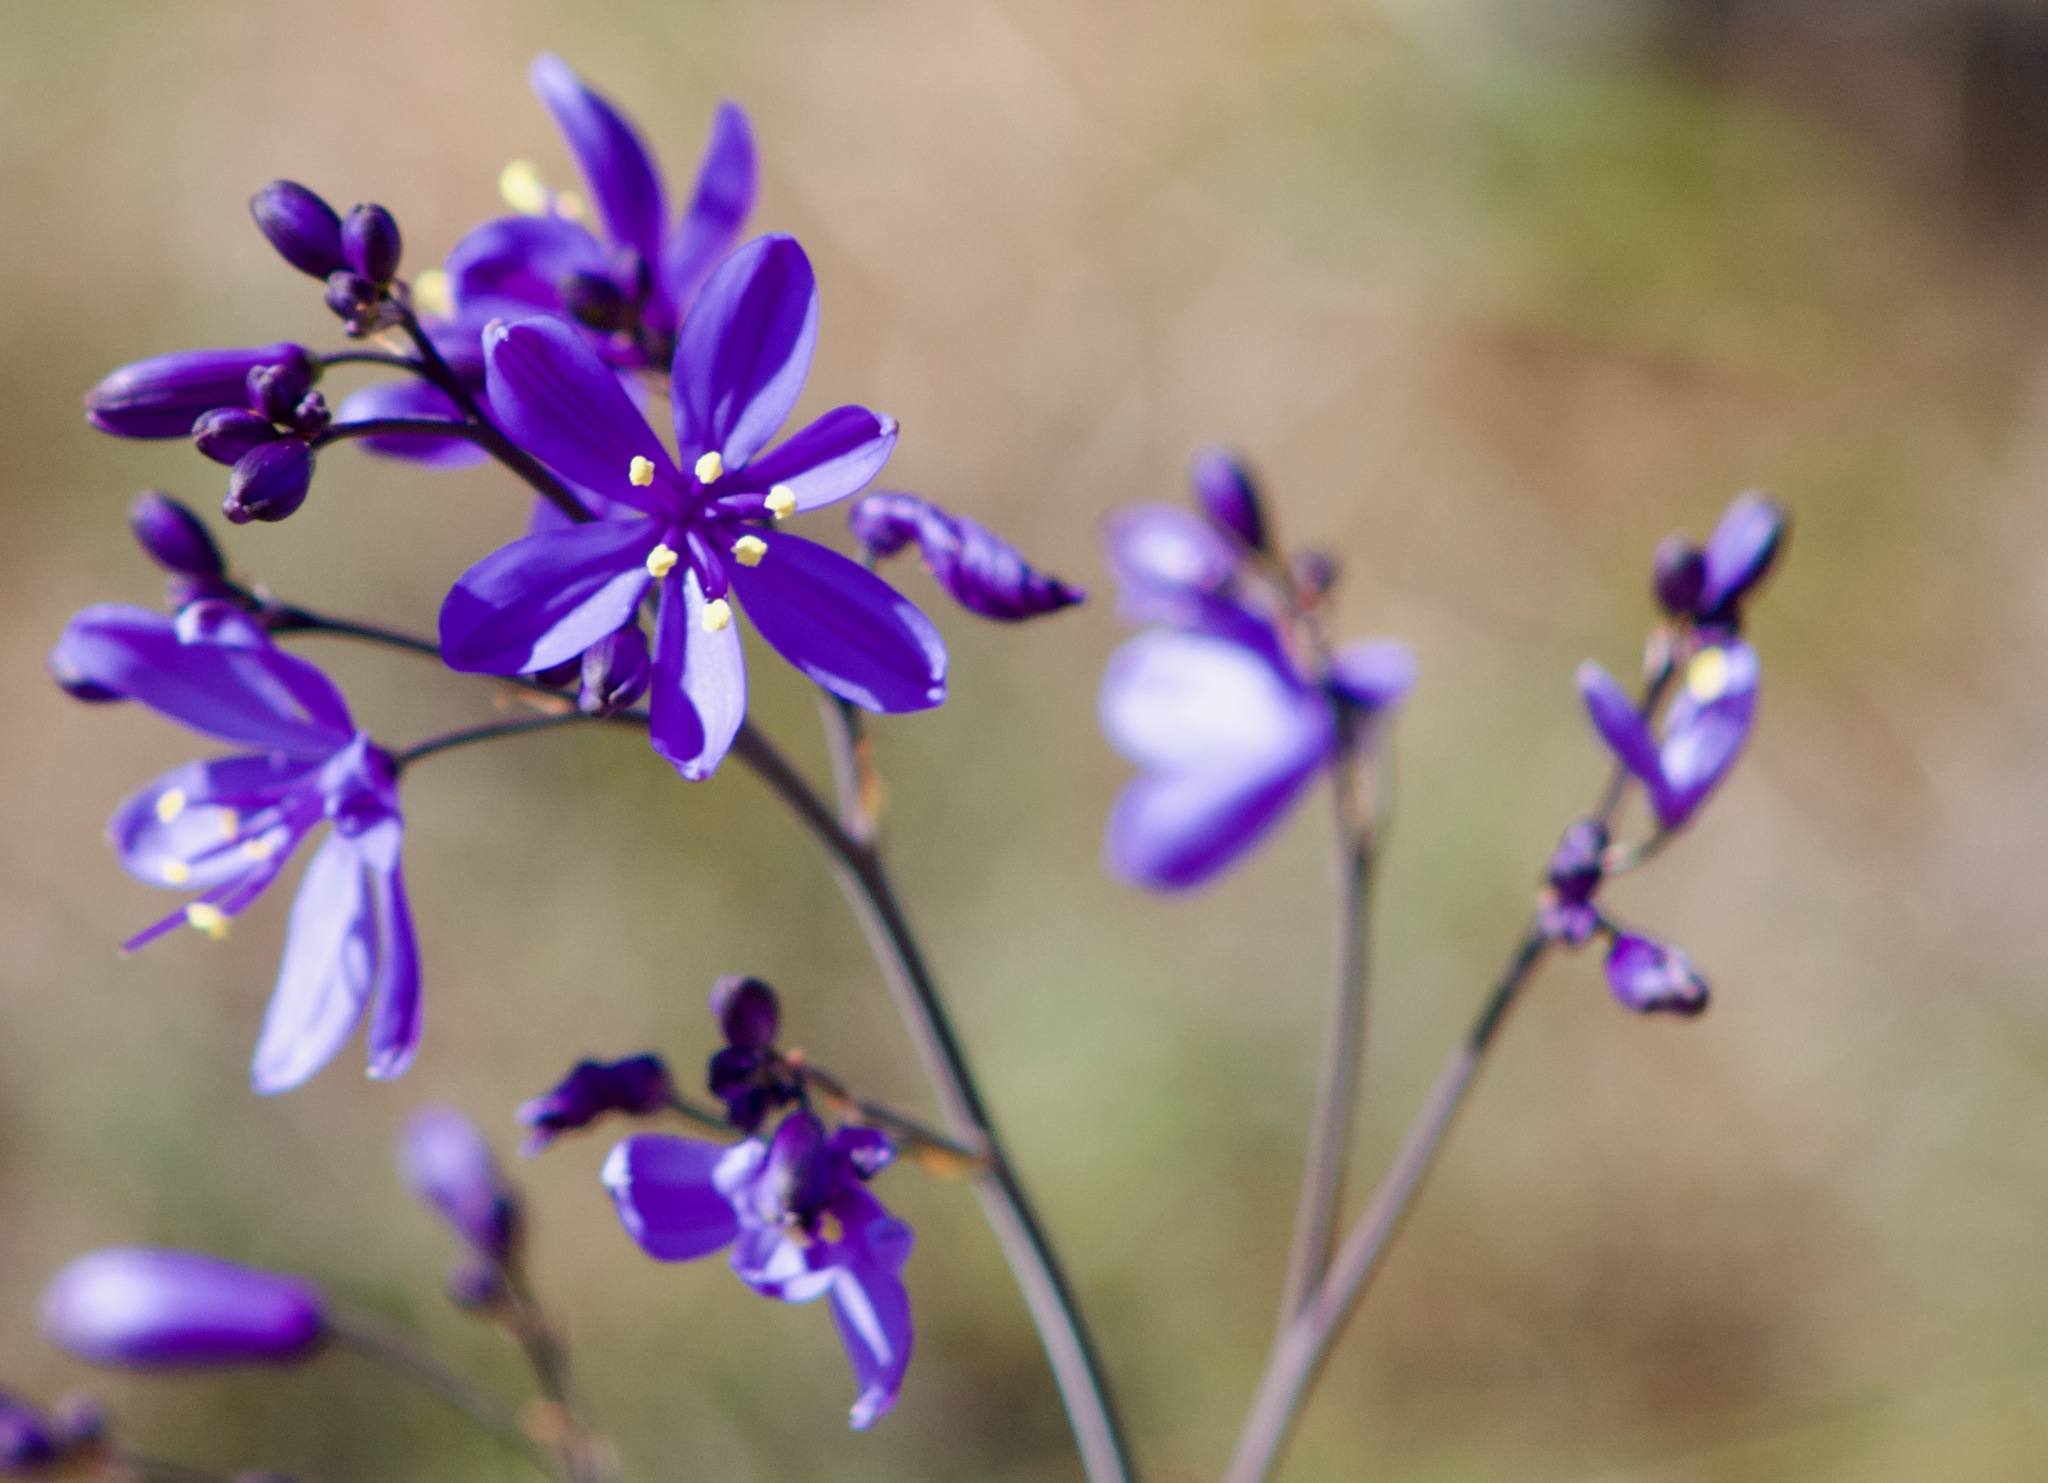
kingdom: Plantae
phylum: Tracheophyta
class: Liliopsida
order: Asparagales
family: Asphodelaceae
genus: Pasithea
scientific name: Pasithea caerulea
